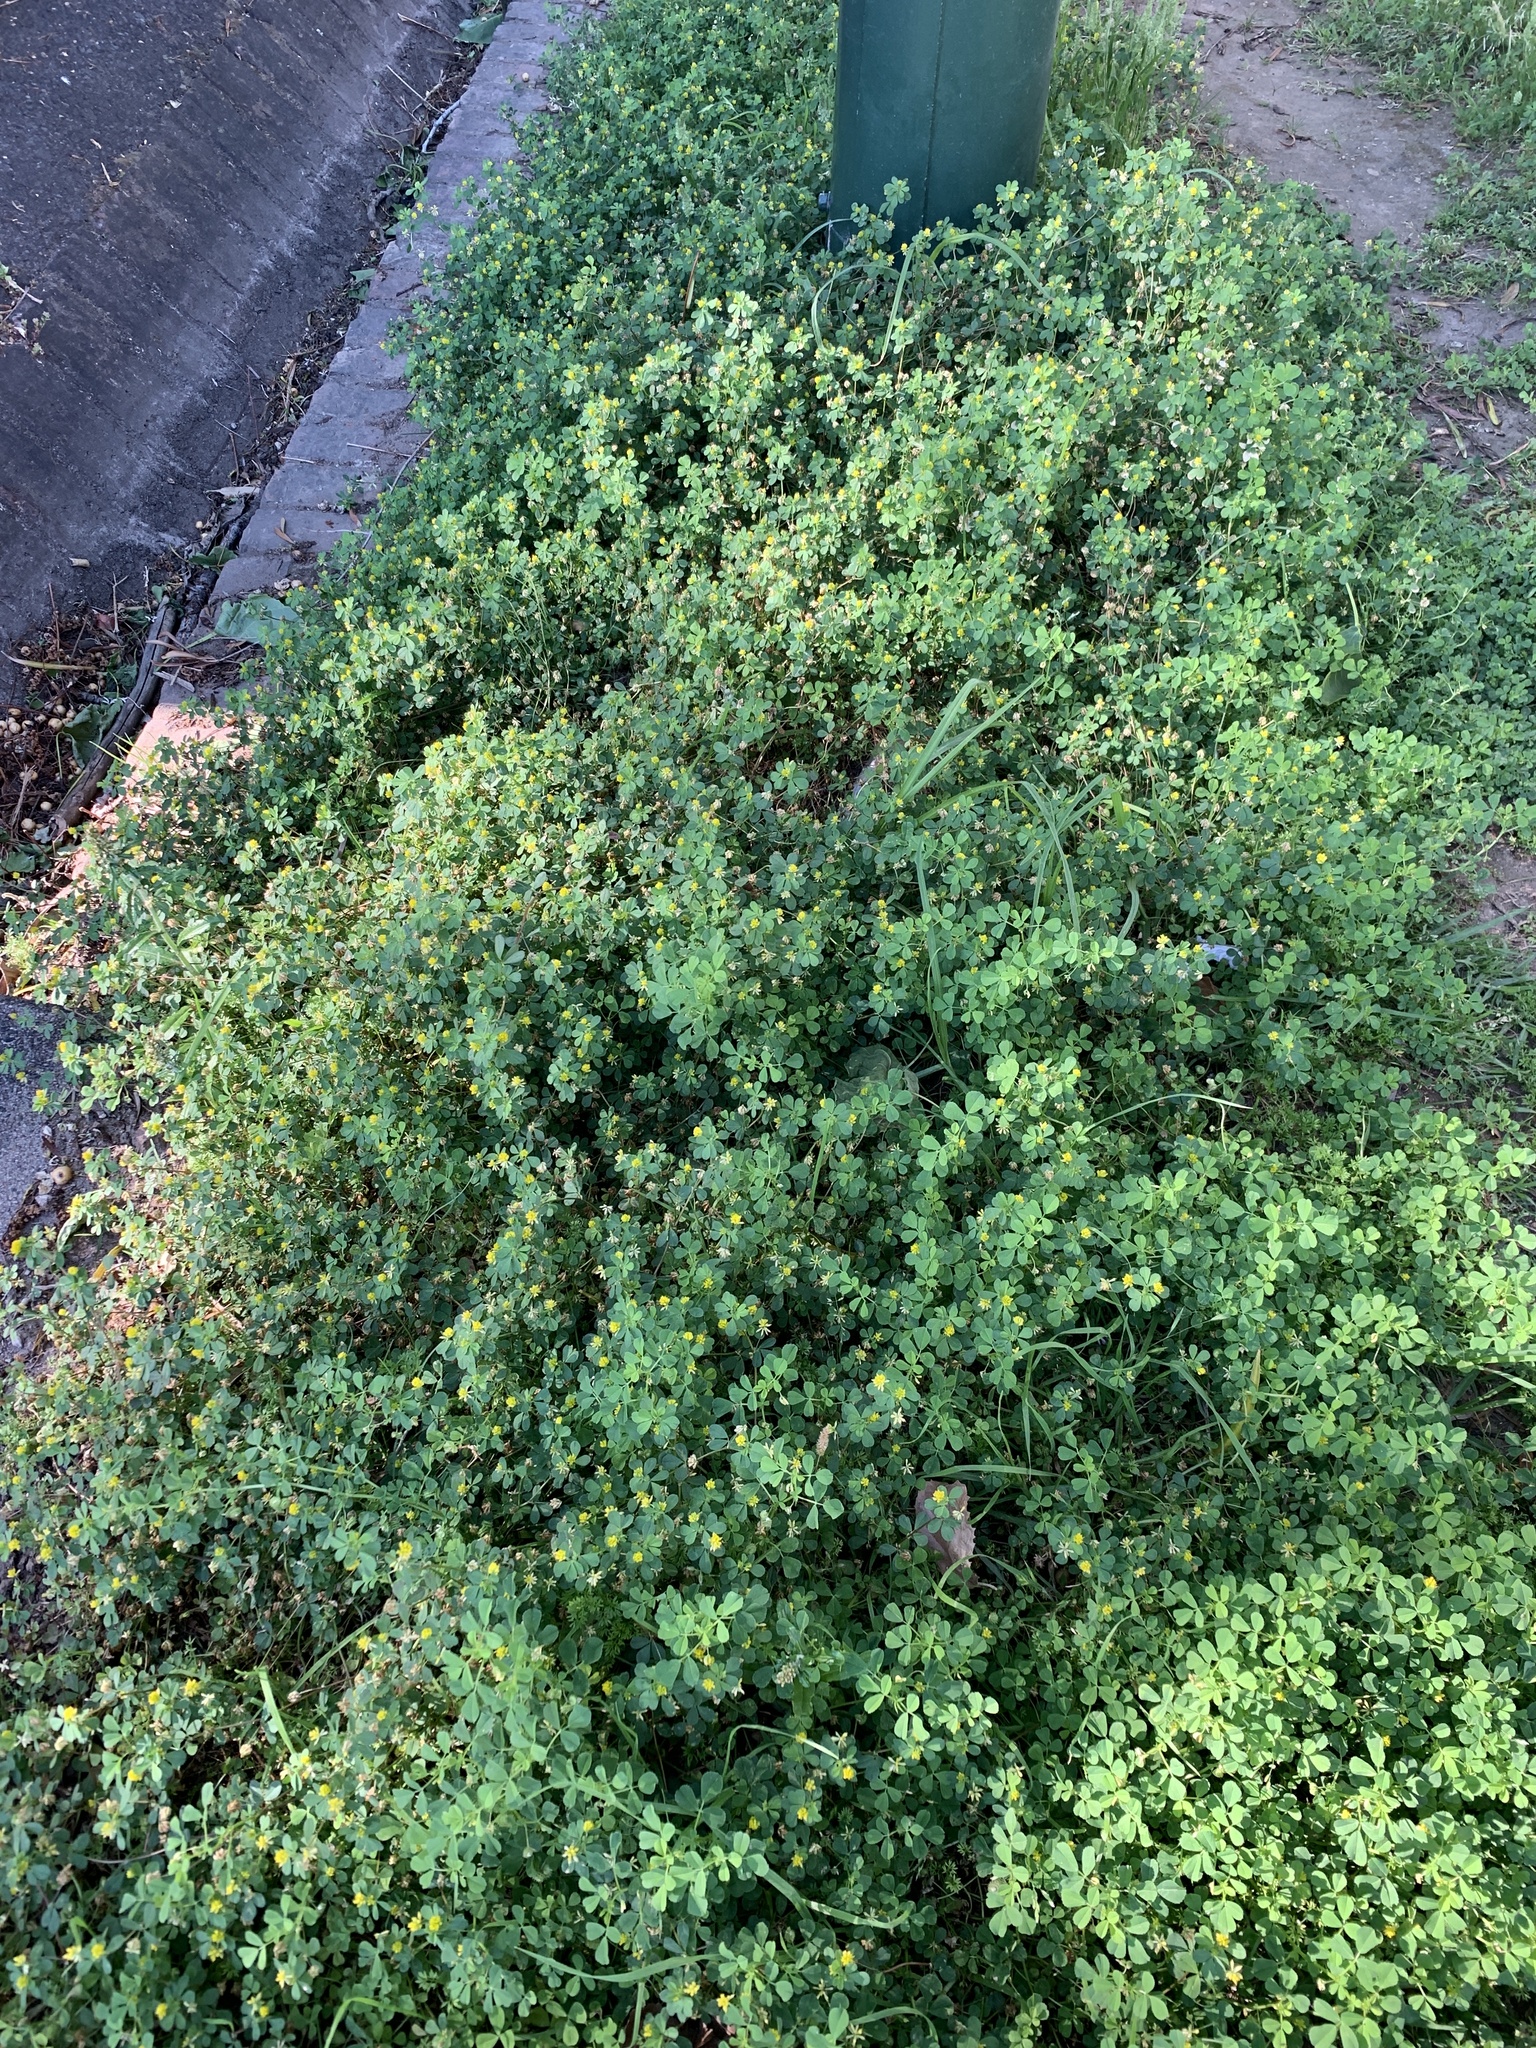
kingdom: Plantae
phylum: Tracheophyta
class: Magnoliopsida
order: Fabales
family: Fabaceae
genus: Trifolium
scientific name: Trifolium dubium
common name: Suckling clover
